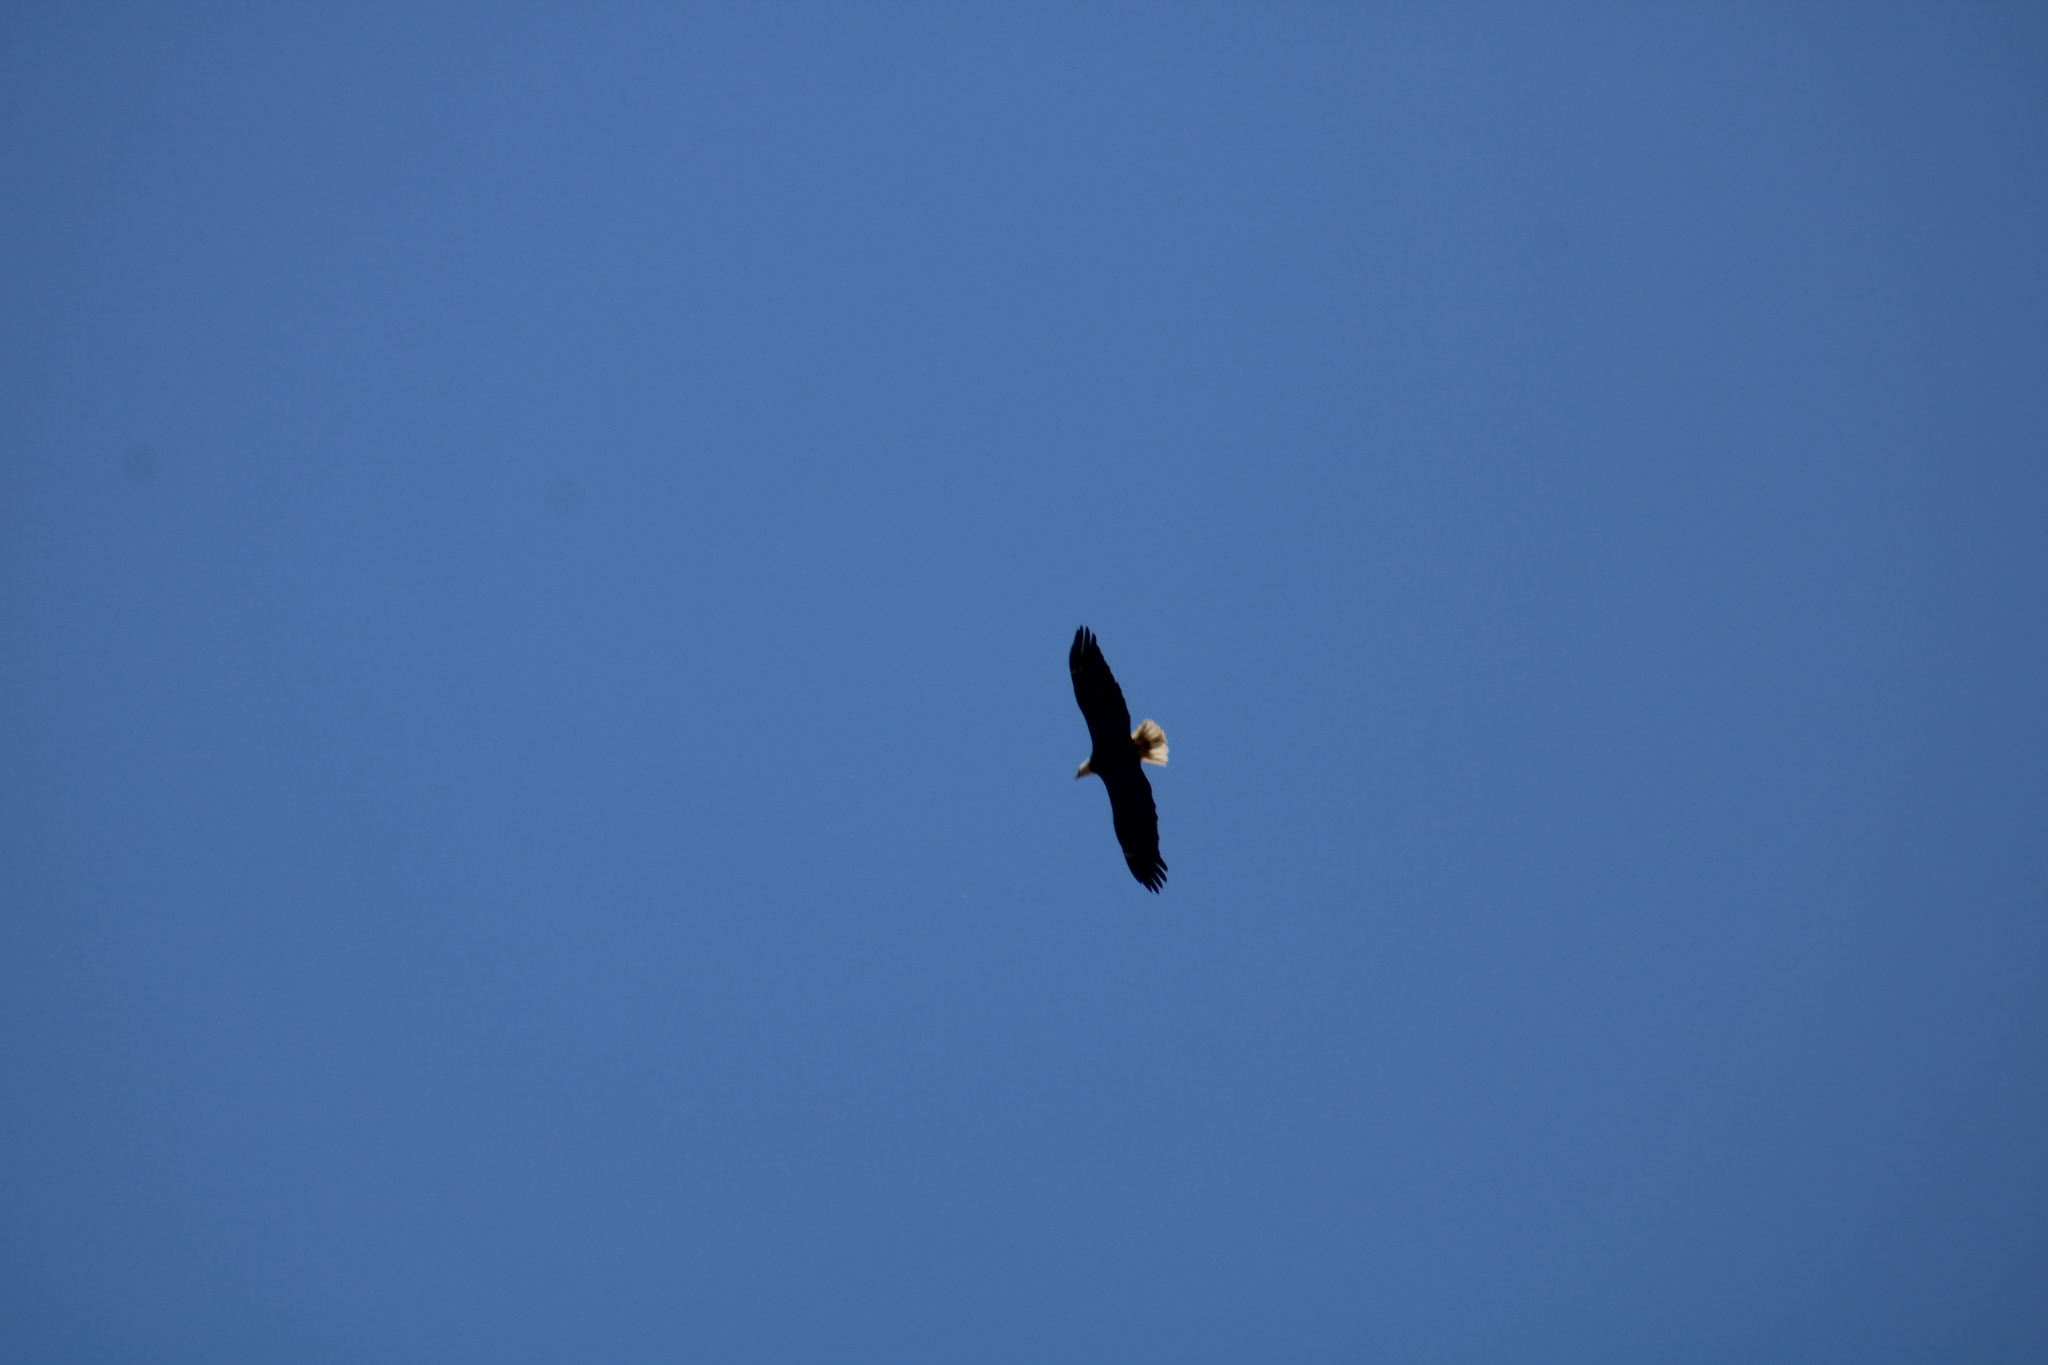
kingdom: Animalia
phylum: Chordata
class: Aves
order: Accipitriformes
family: Accipitridae
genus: Haliaeetus
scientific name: Haliaeetus leucocephalus
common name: Bald eagle
